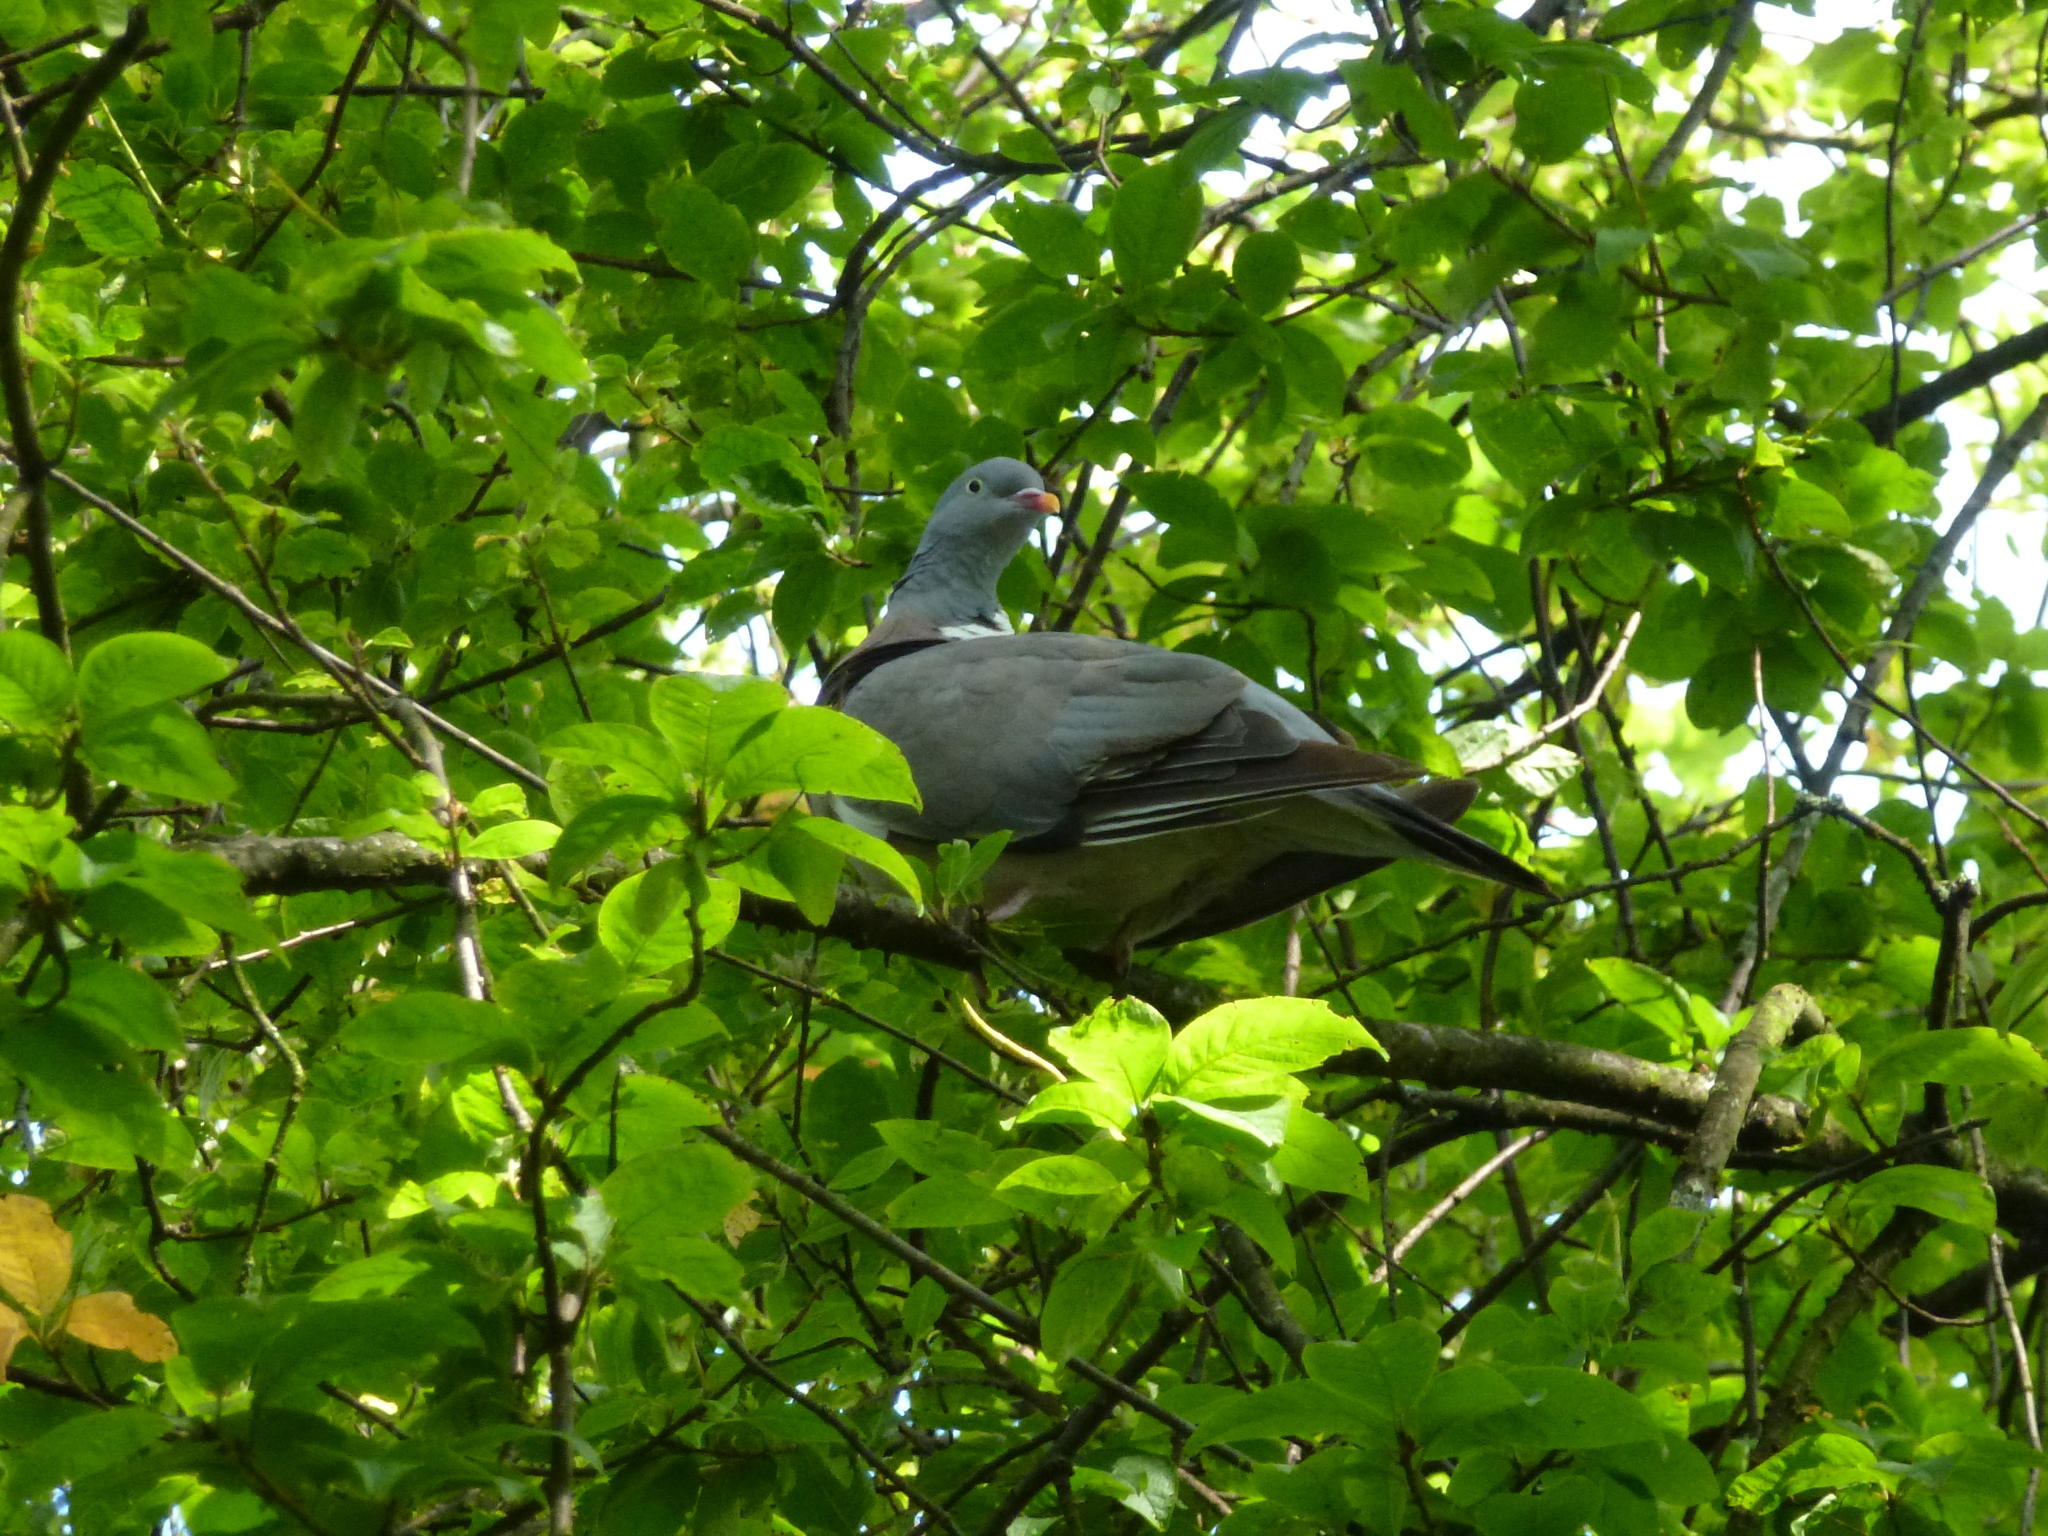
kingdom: Animalia
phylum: Chordata
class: Aves
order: Columbiformes
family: Columbidae
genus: Columba
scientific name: Columba palumbus
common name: Common wood pigeon
